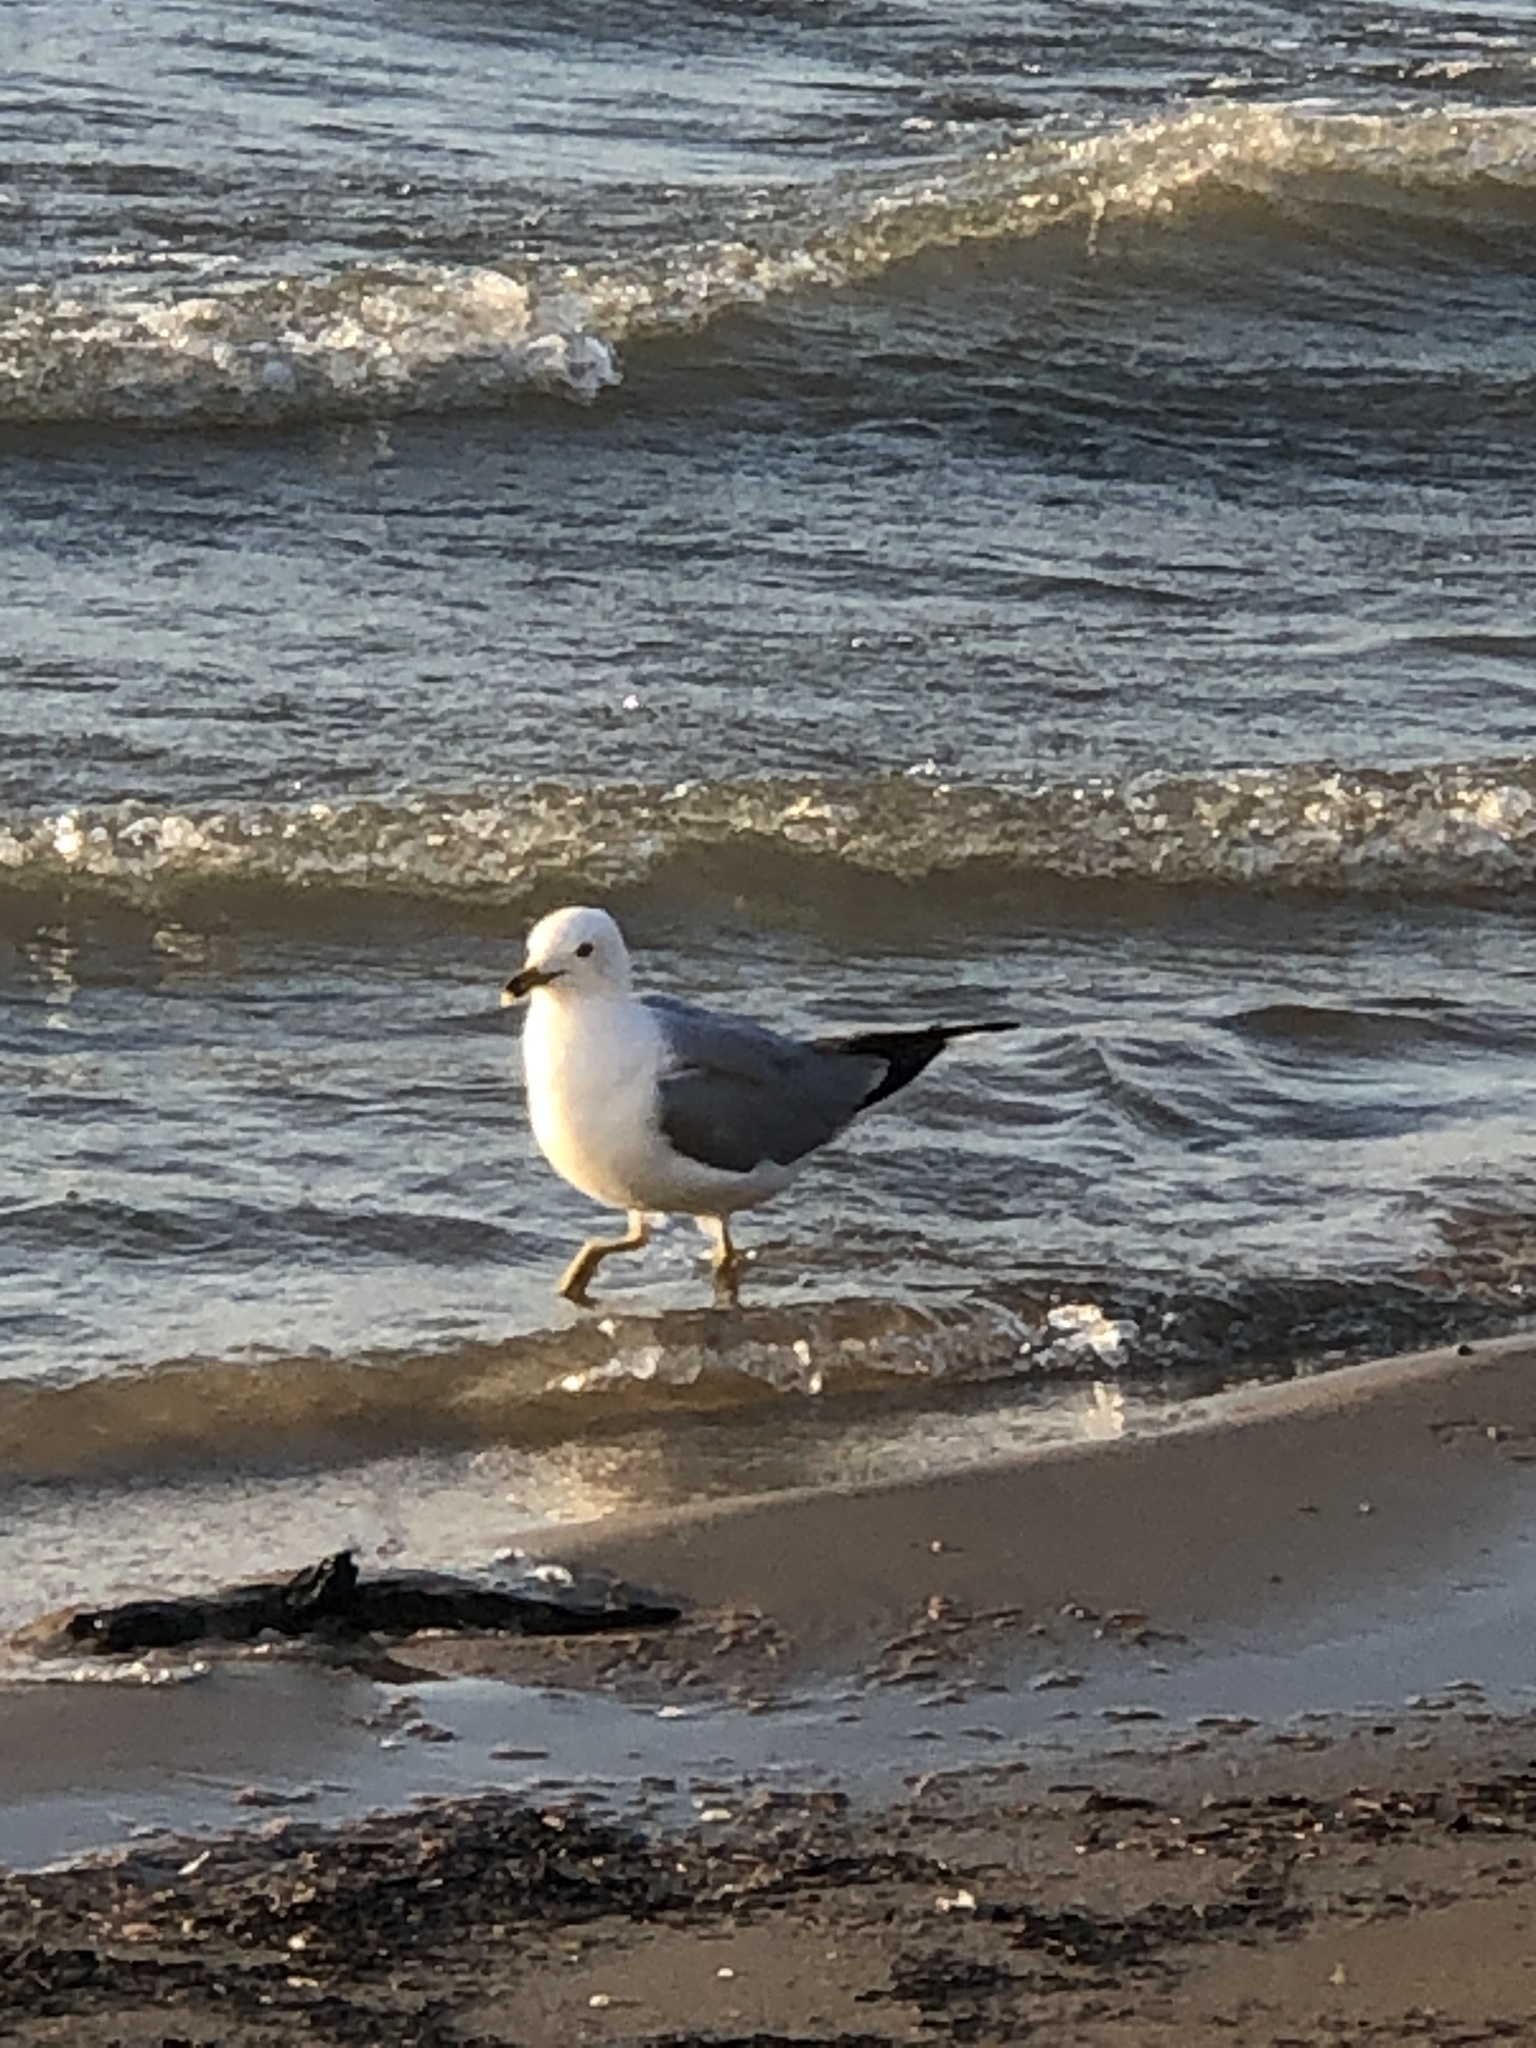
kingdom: Animalia
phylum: Chordata
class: Aves
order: Charadriiformes
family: Laridae
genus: Larus
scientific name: Larus delawarensis
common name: Ring-billed gull
